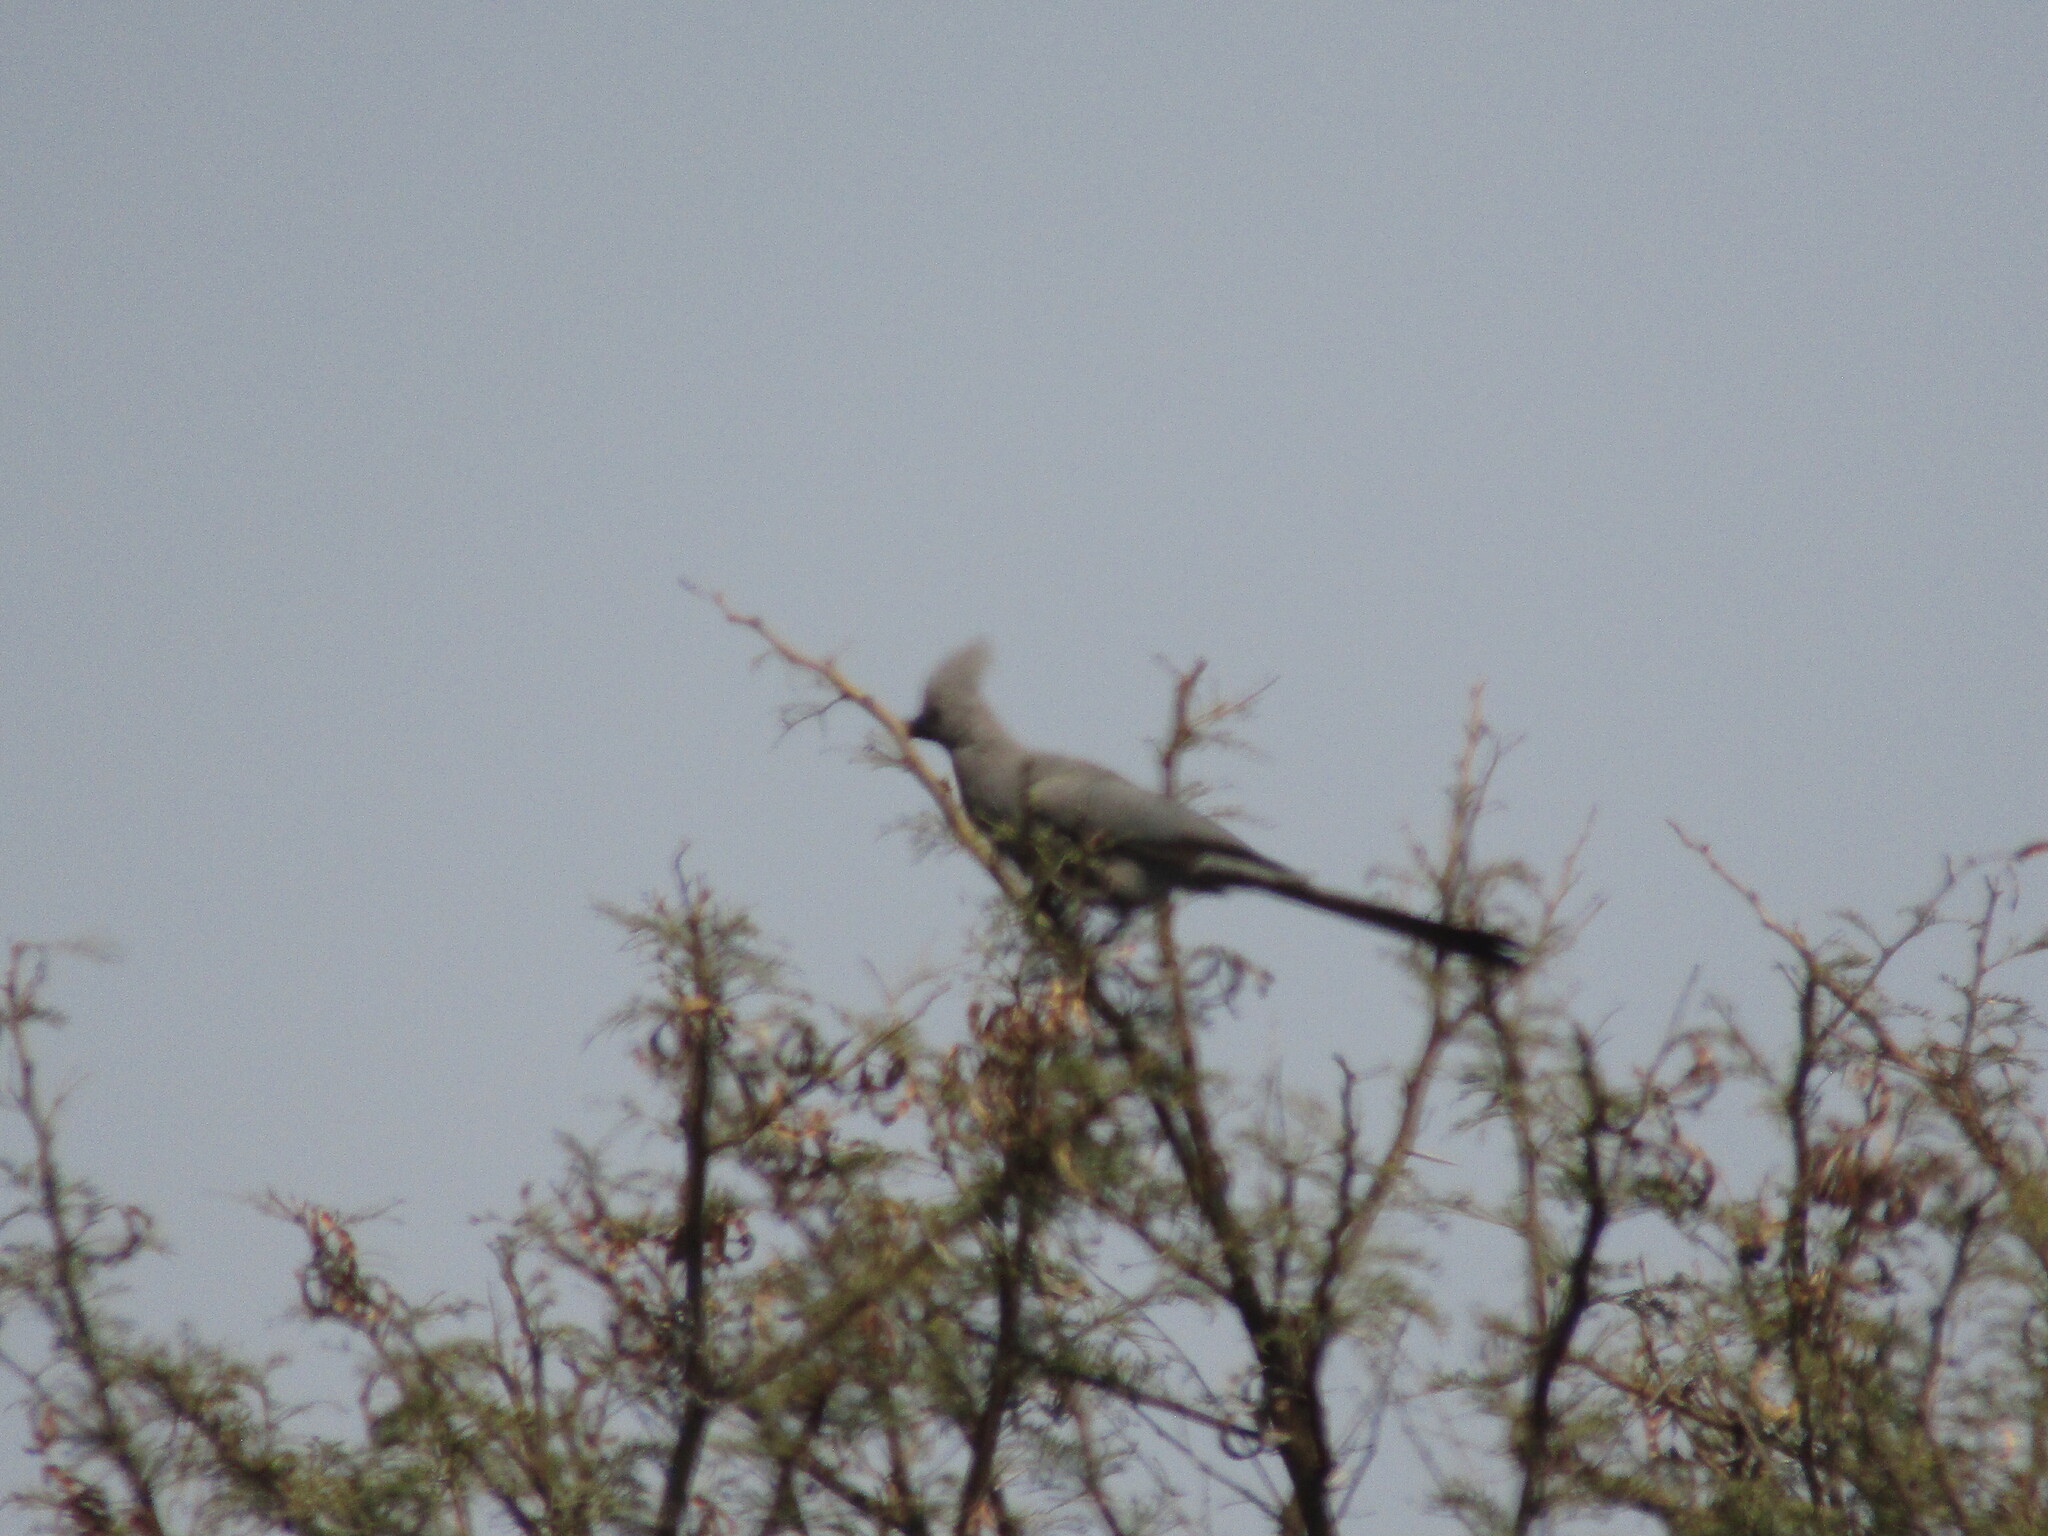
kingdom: Animalia
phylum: Chordata
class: Aves
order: Musophagiformes
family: Musophagidae
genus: Corythaixoides
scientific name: Corythaixoides concolor
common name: Grey go-away-bird
